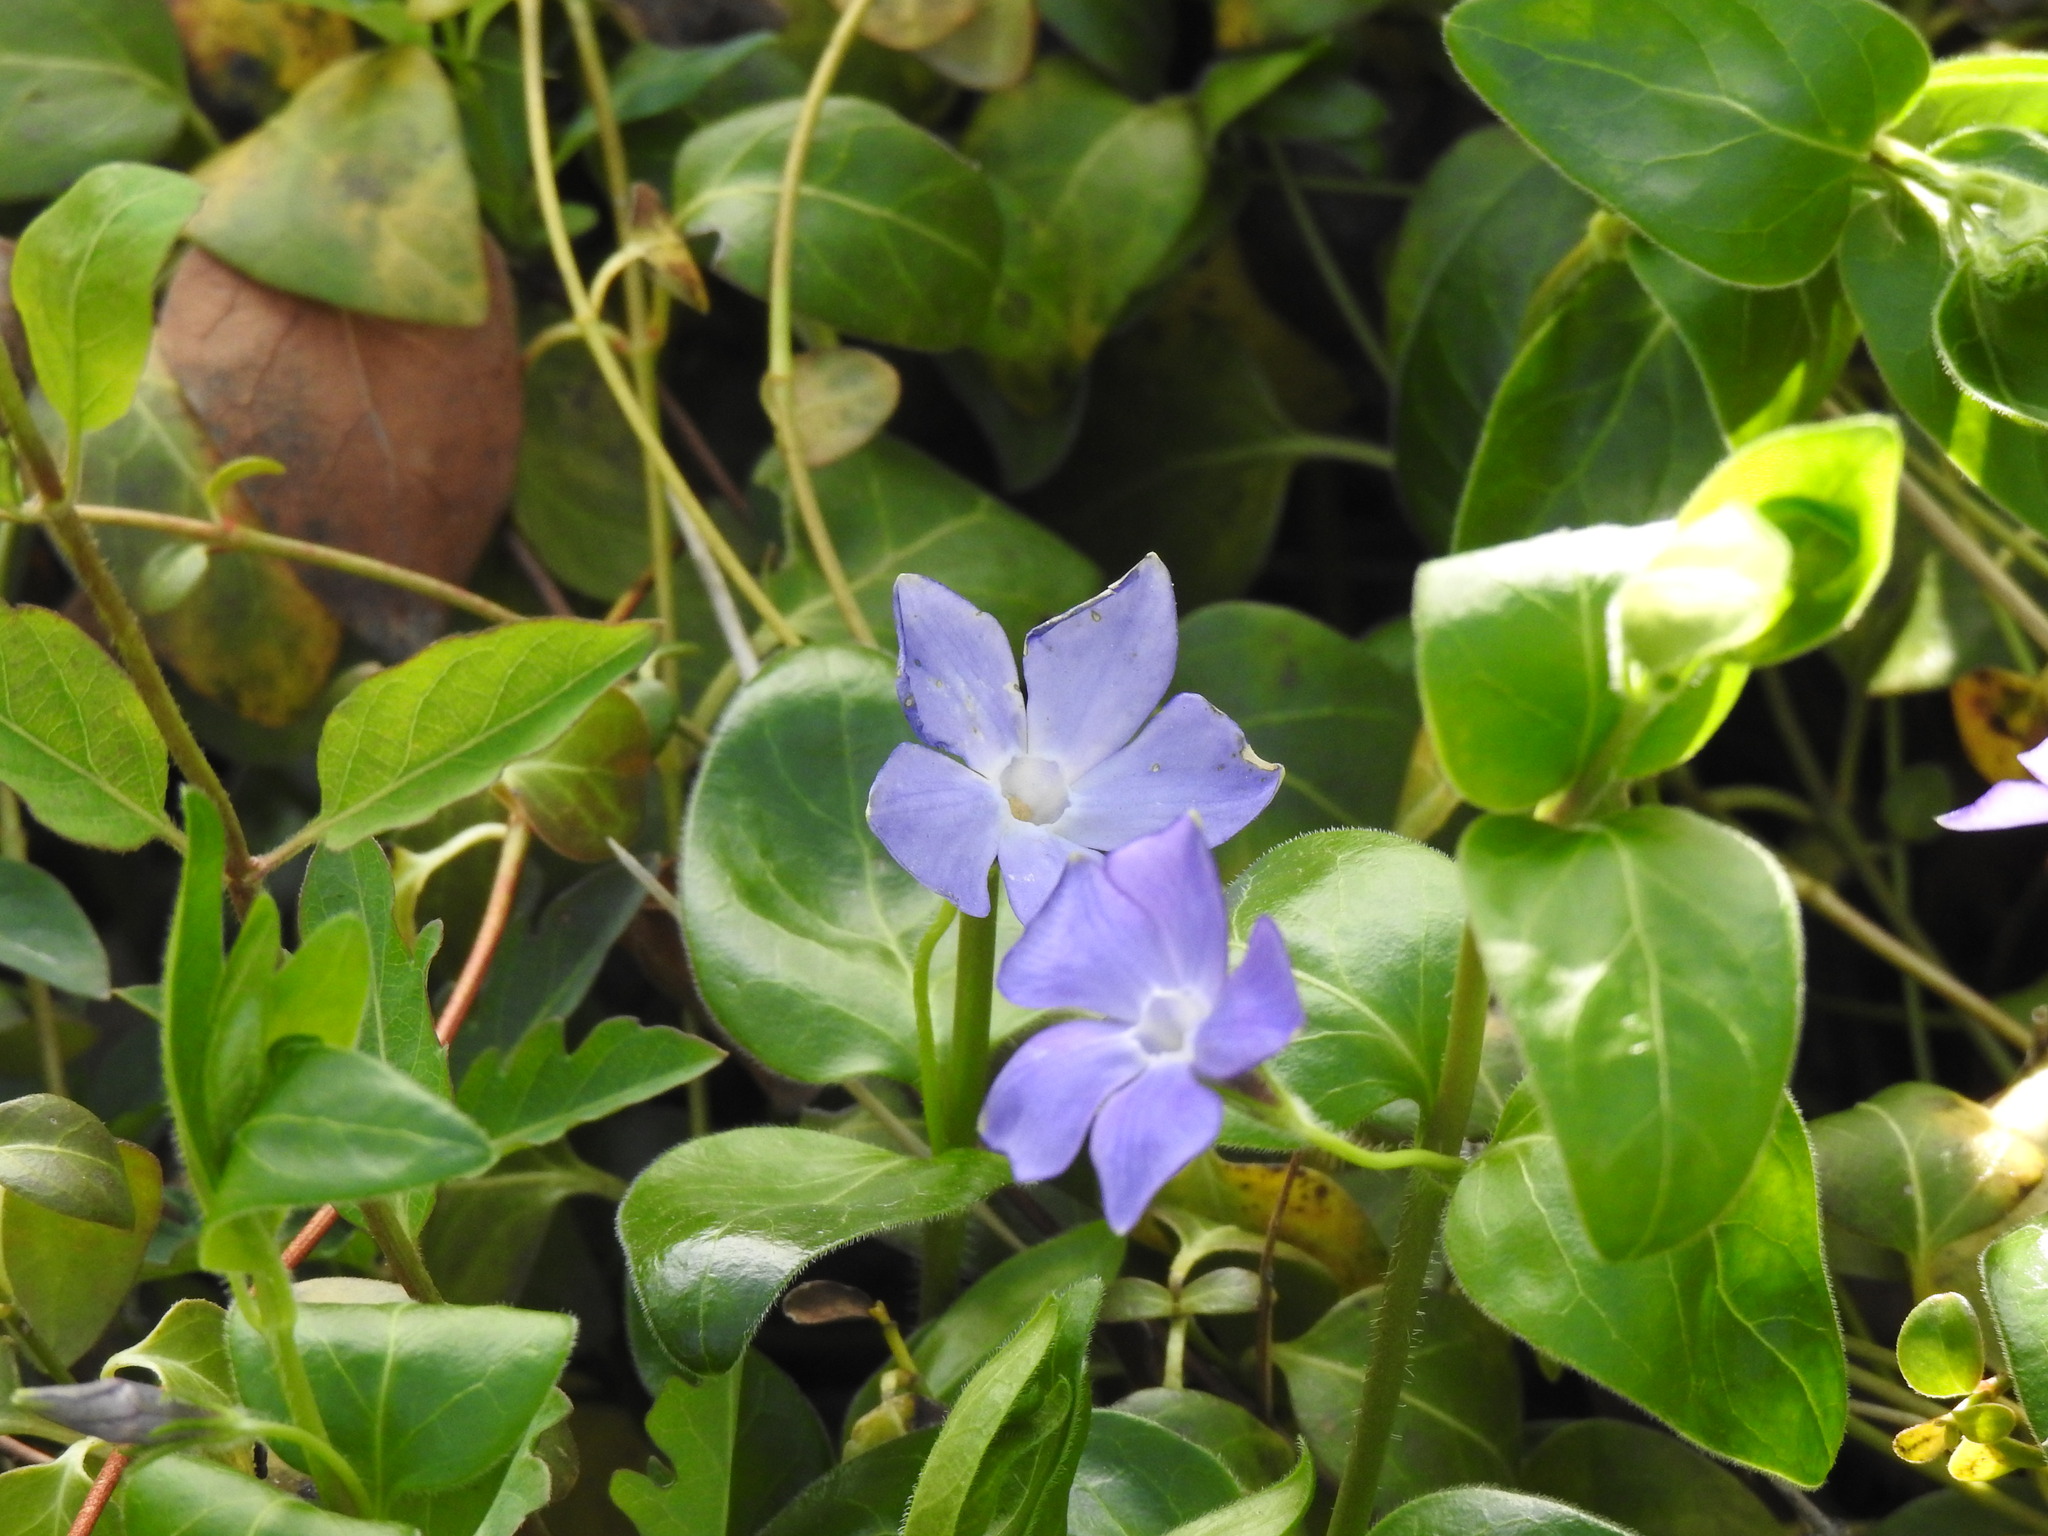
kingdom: Plantae
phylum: Tracheophyta
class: Magnoliopsida
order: Gentianales
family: Apocynaceae
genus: Vinca
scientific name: Vinca major
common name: Greater periwinkle
